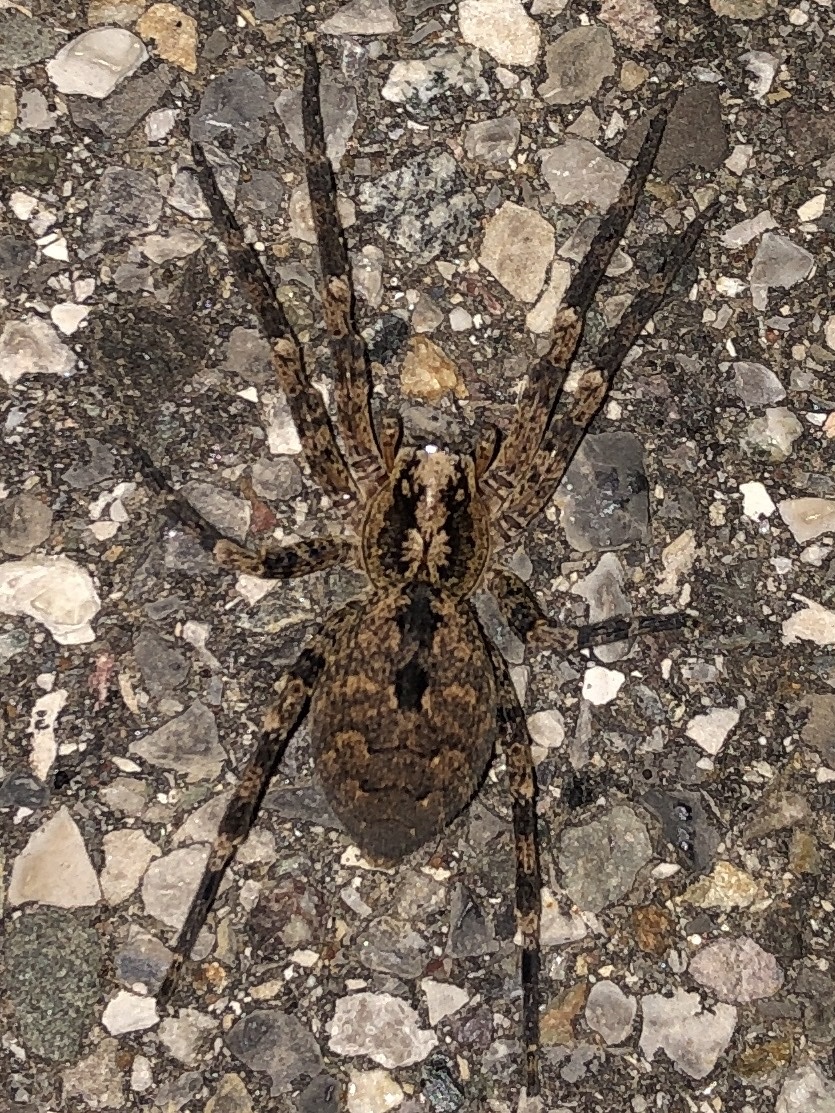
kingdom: Animalia
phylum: Arthropoda
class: Arachnida
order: Araneae
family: Zoropsidae
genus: Zoropsis
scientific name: Zoropsis spinimana
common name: Zoropsid spider
